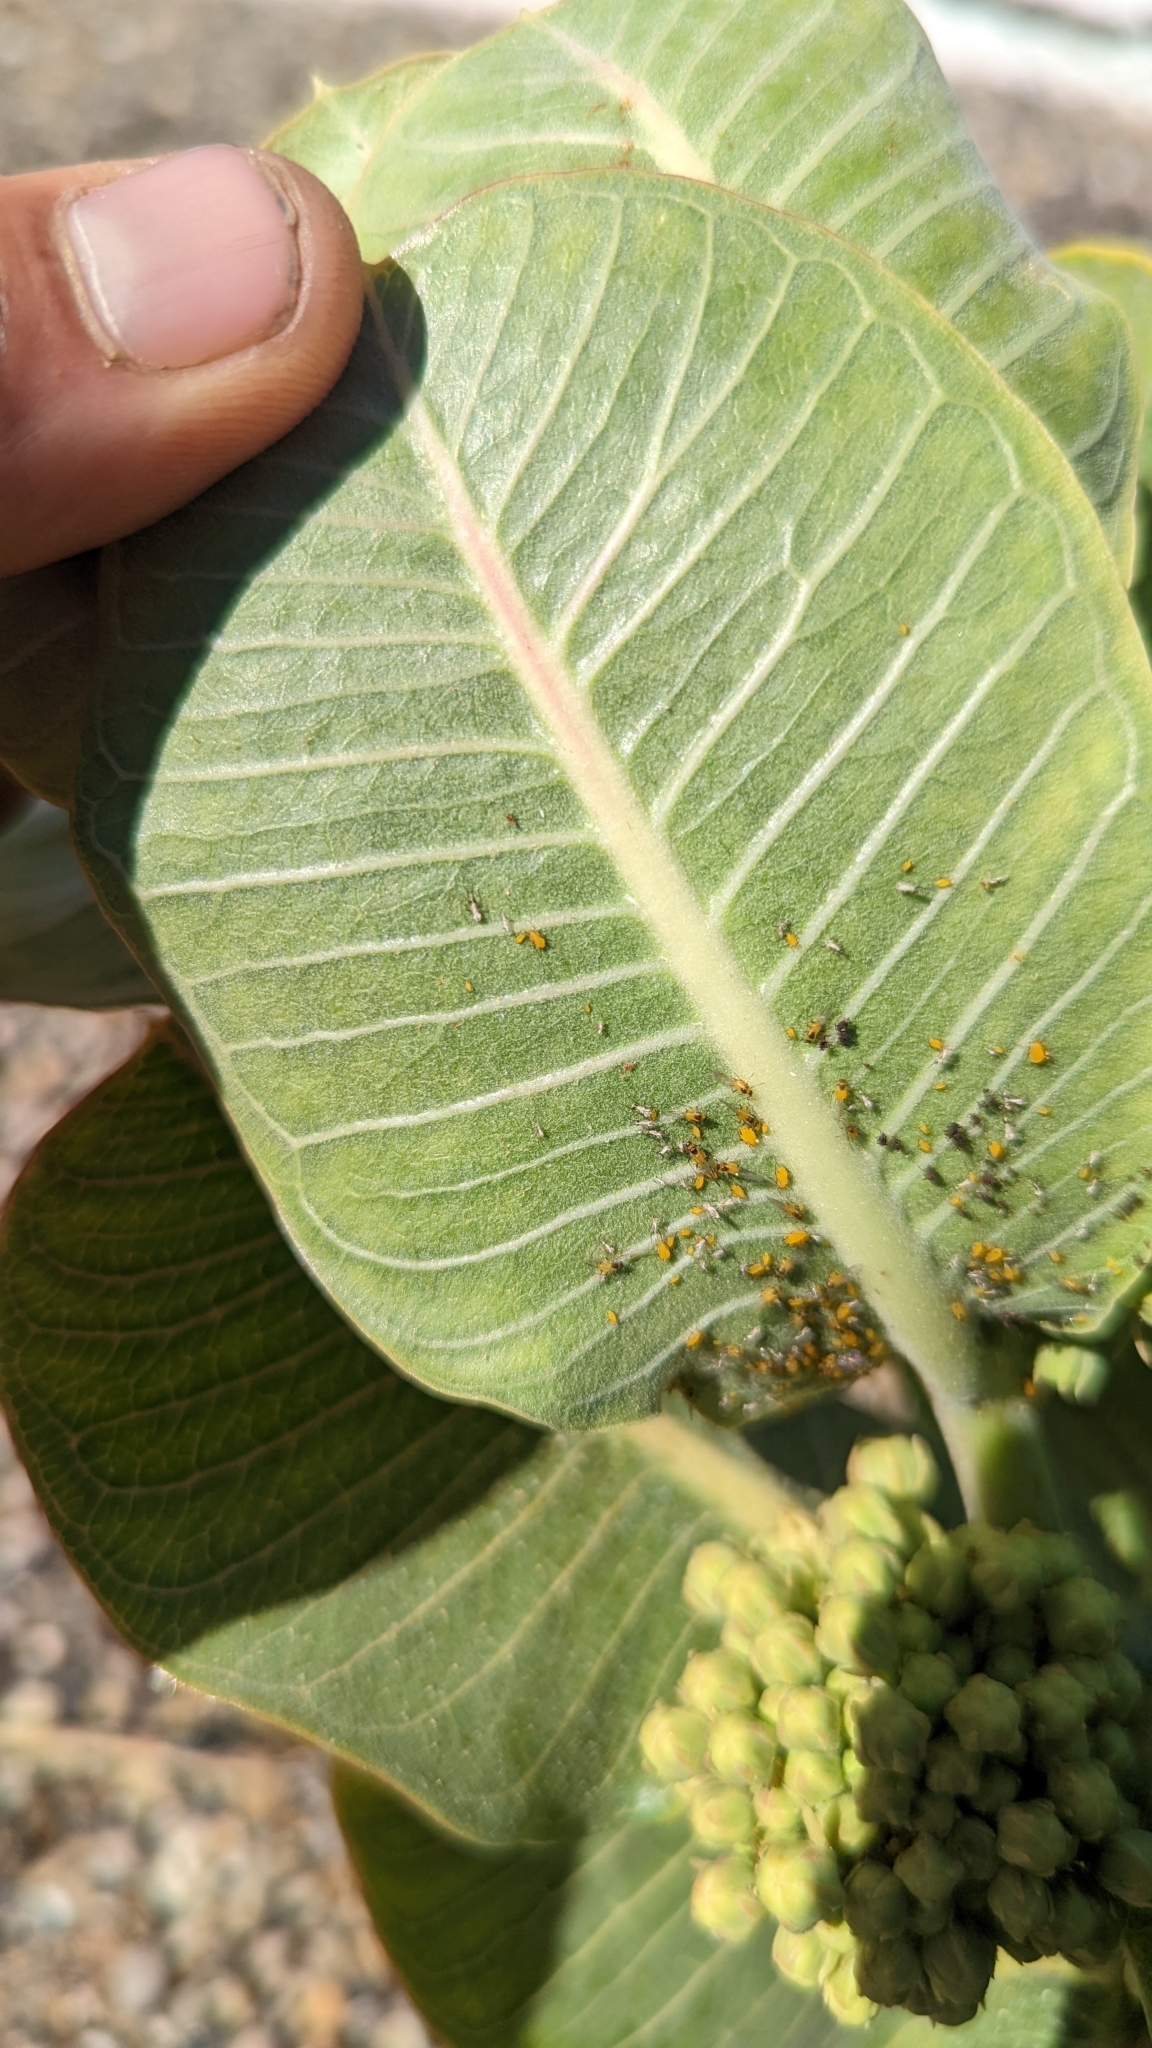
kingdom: Plantae
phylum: Tracheophyta
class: Magnoliopsida
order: Gentianales
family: Apocynaceae
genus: Asclepias
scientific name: Asclepias latifolia
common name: Broadleaf milkweed
